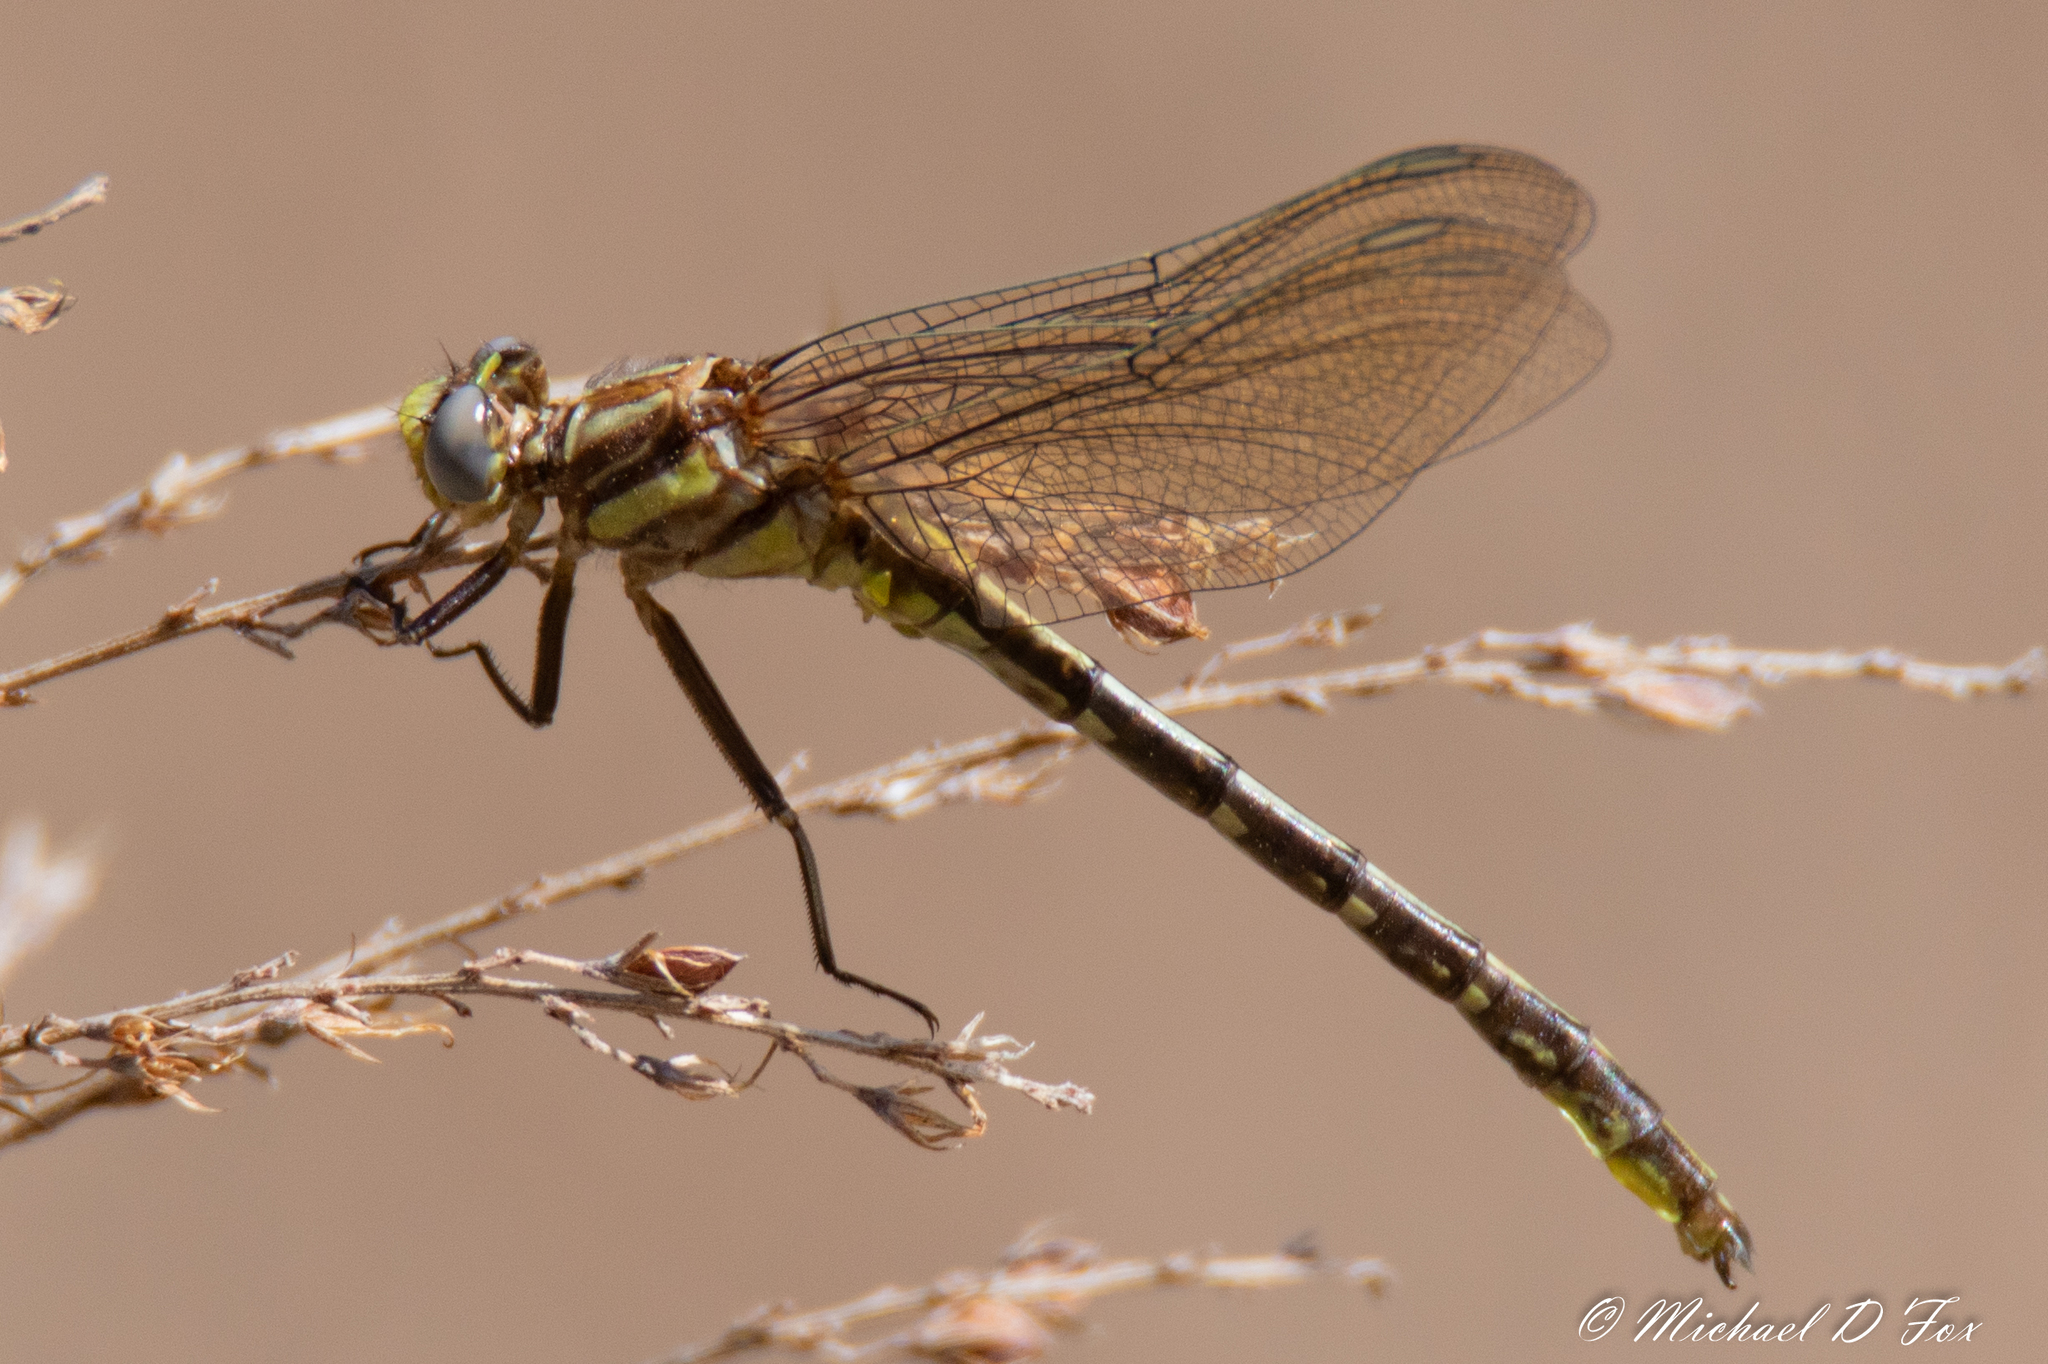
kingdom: Animalia
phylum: Arthropoda
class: Insecta
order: Odonata
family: Gomphidae
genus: Phanogomphus
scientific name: Phanogomphus oklahomensis
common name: Oklahoma clubtail
